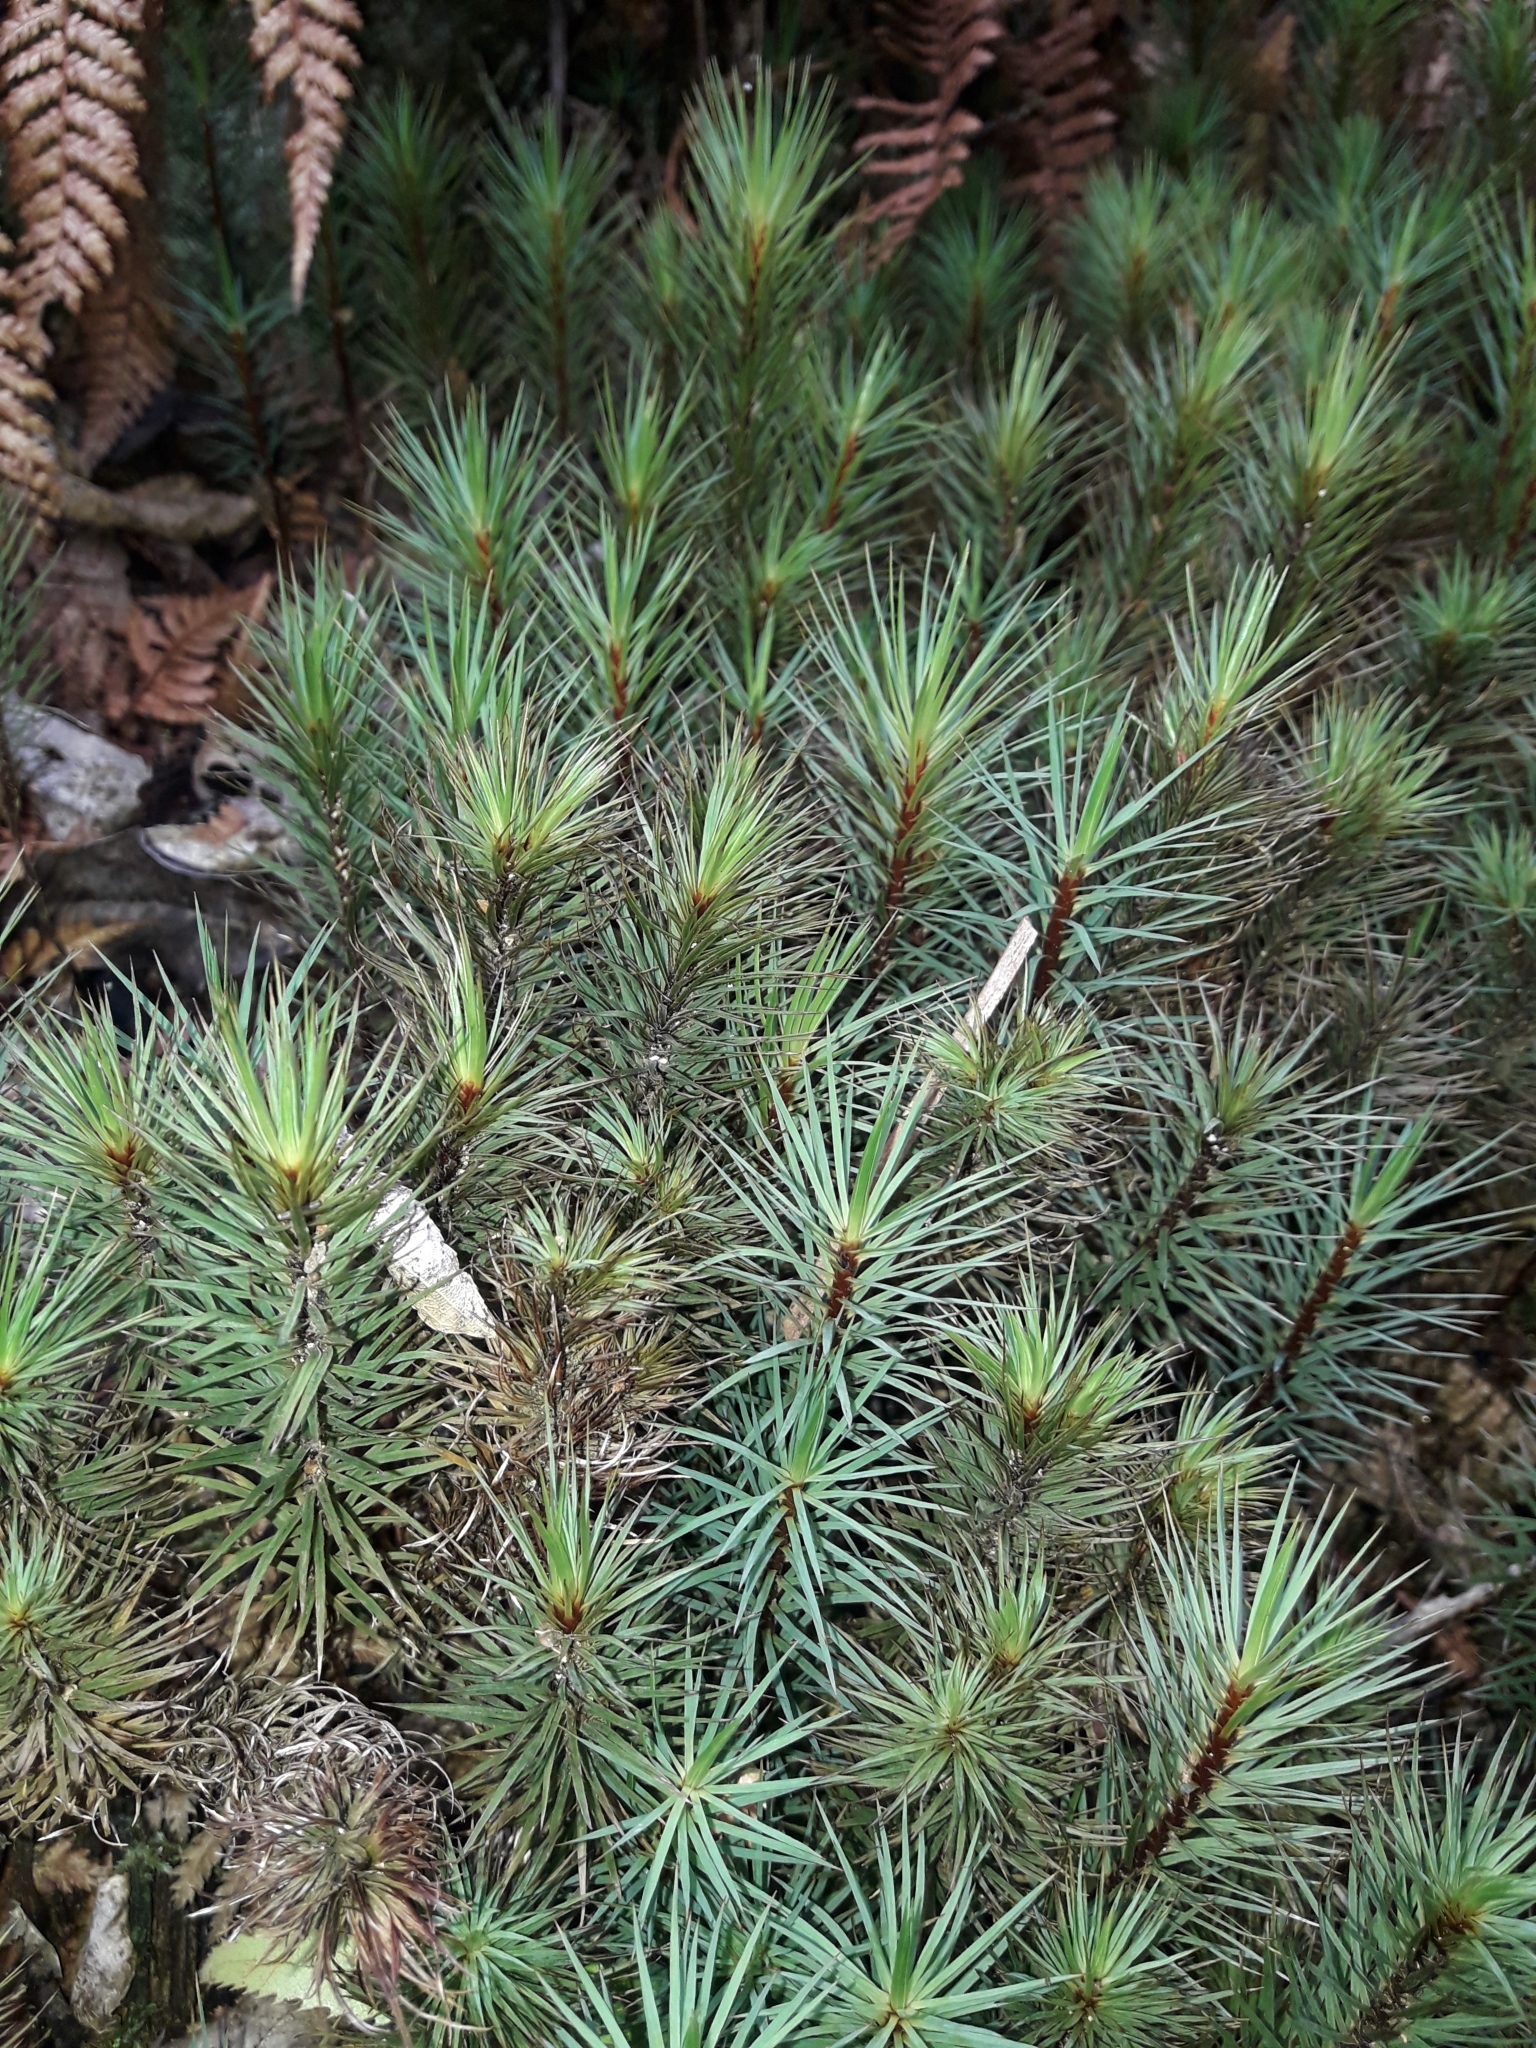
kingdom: Plantae
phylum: Bryophyta
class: Polytrichopsida
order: Polytrichales
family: Polytrichaceae
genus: Dawsonia
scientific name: Dawsonia superba
